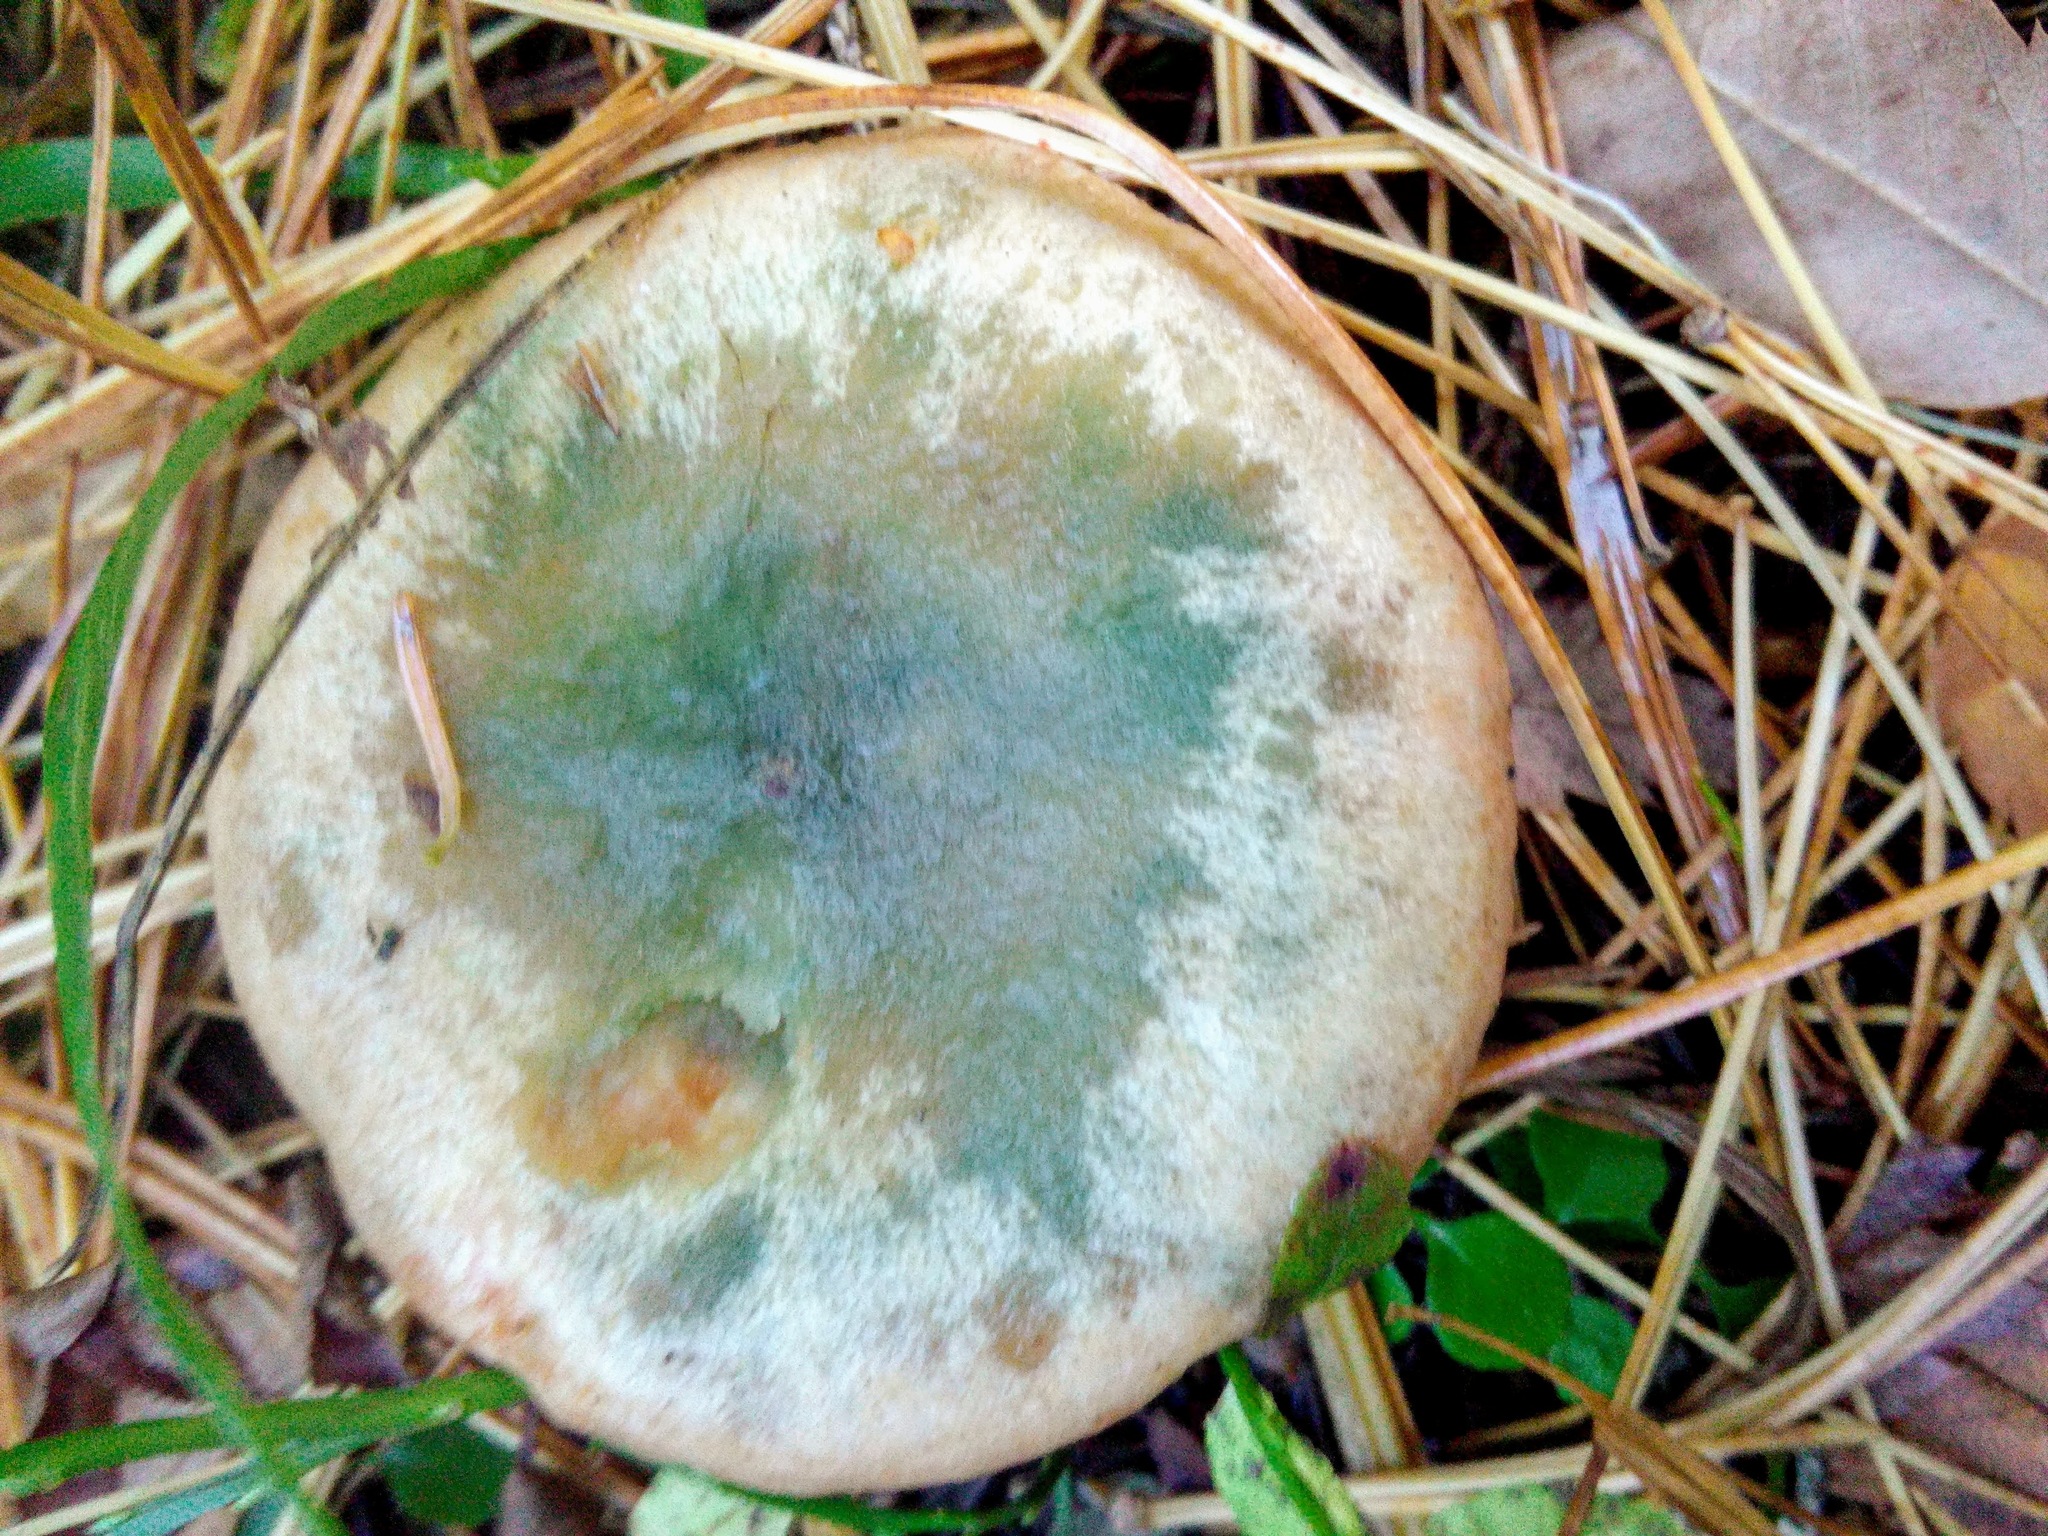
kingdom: Fungi
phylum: Basidiomycota
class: Agaricomycetes
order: Russulales
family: Russulaceae
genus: Lactarius
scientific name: Lactarius deterrimus
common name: False saffron milkcap
